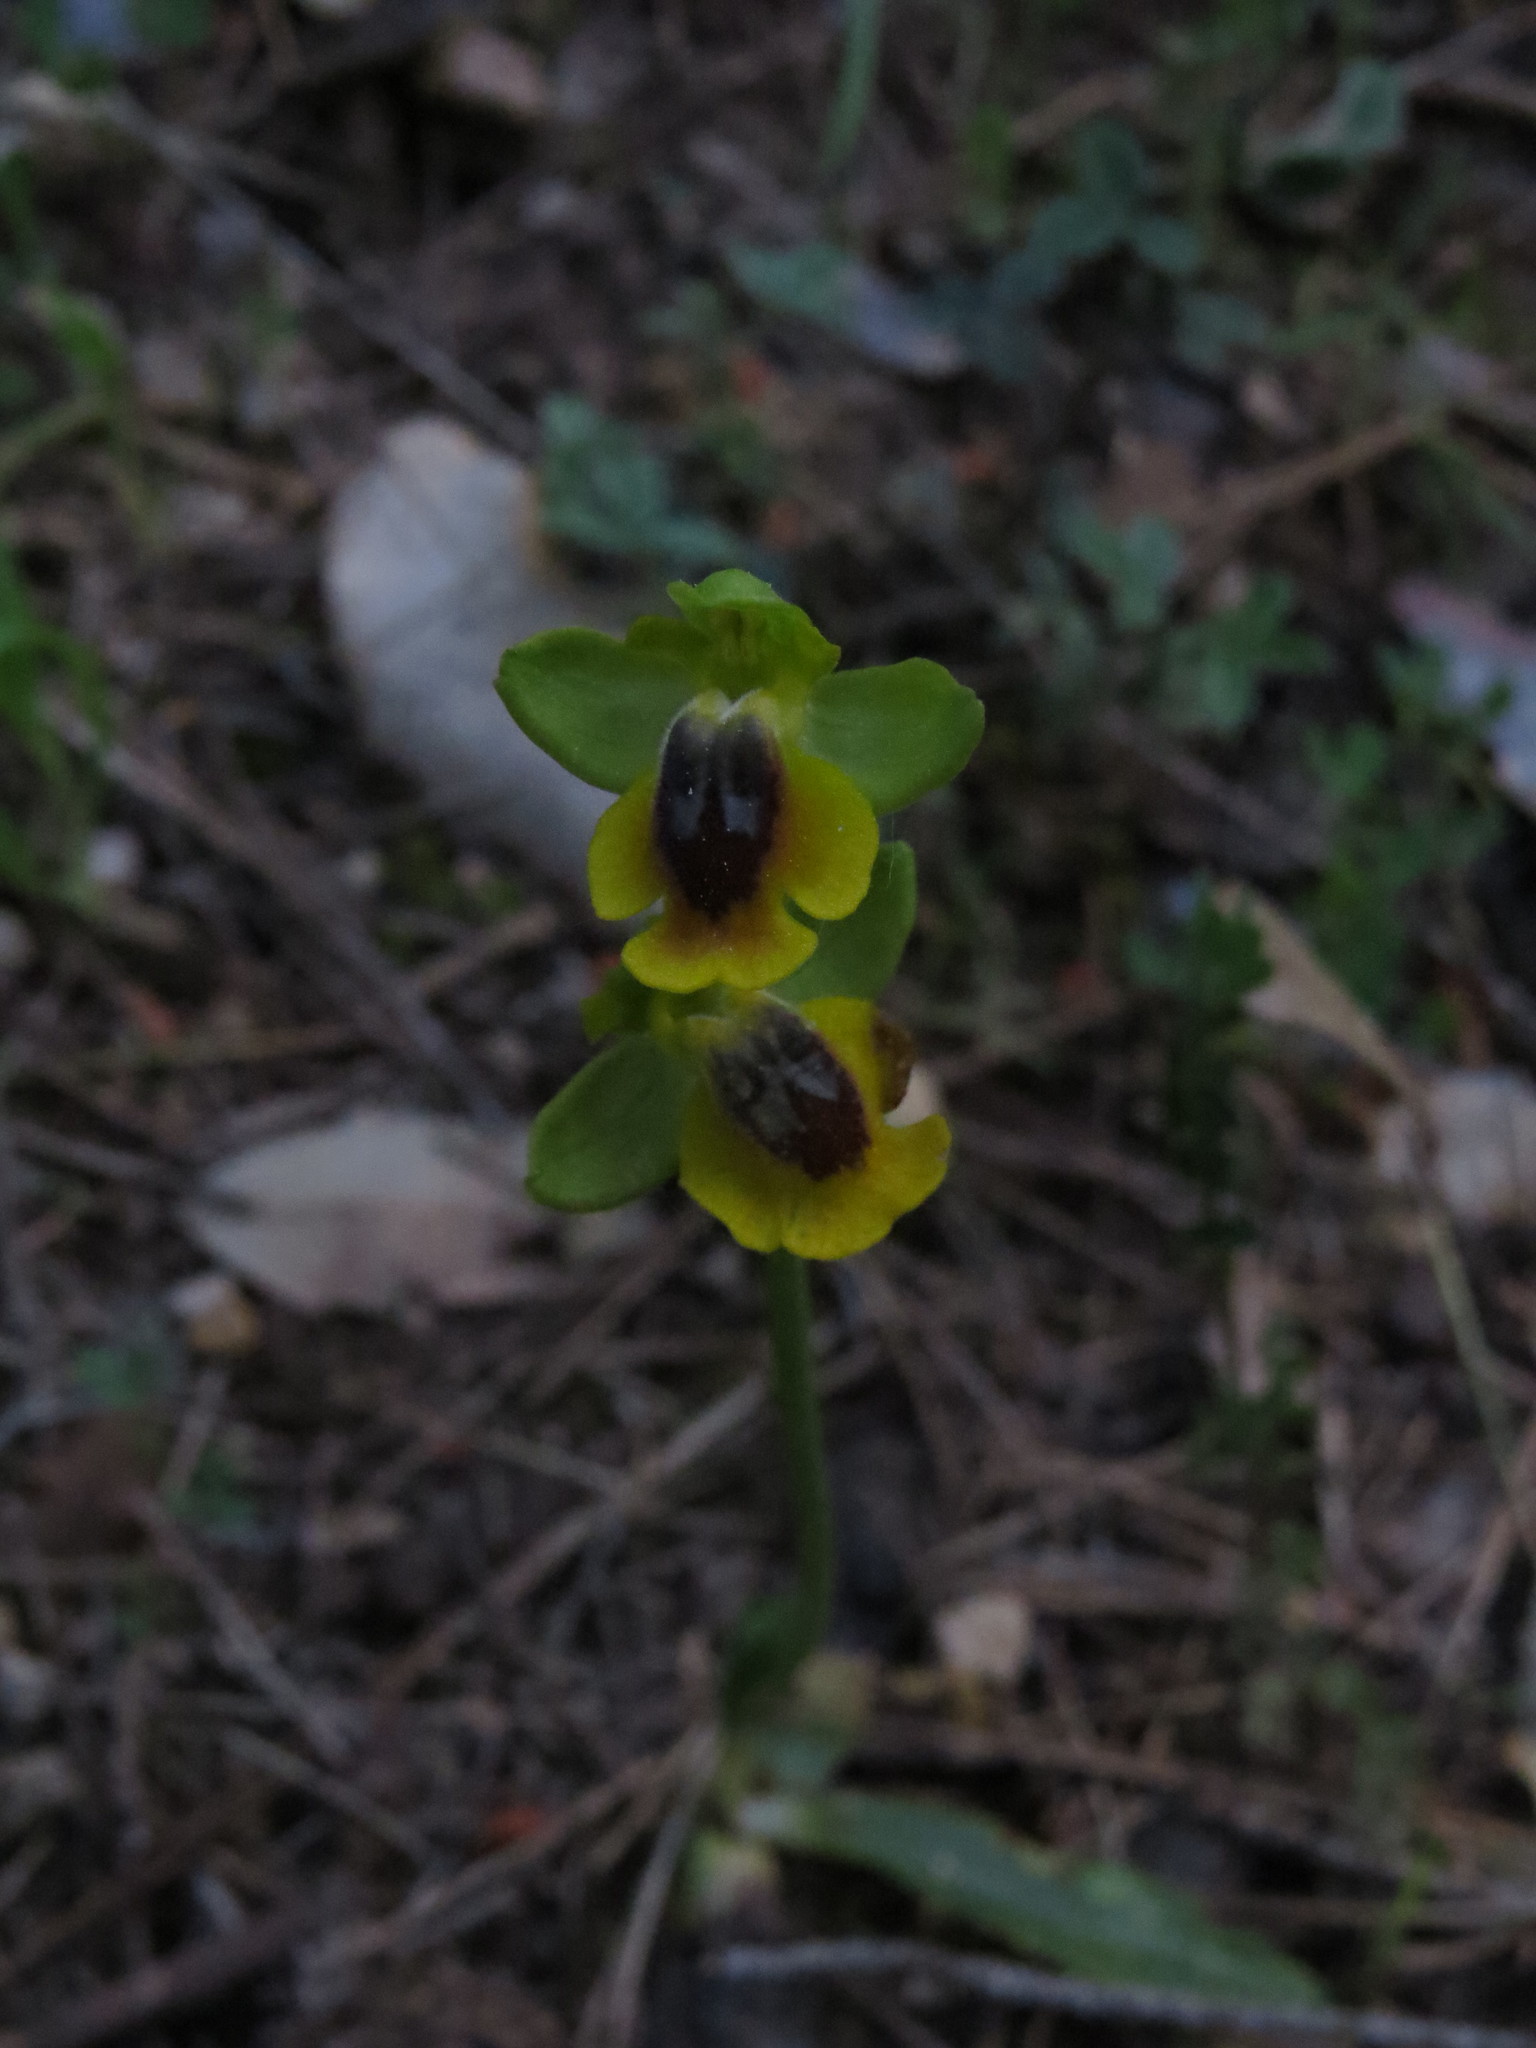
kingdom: Plantae
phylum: Tracheophyta
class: Liliopsida
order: Asparagales
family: Orchidaceae
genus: Ophrys
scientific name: Ophrys lutea
